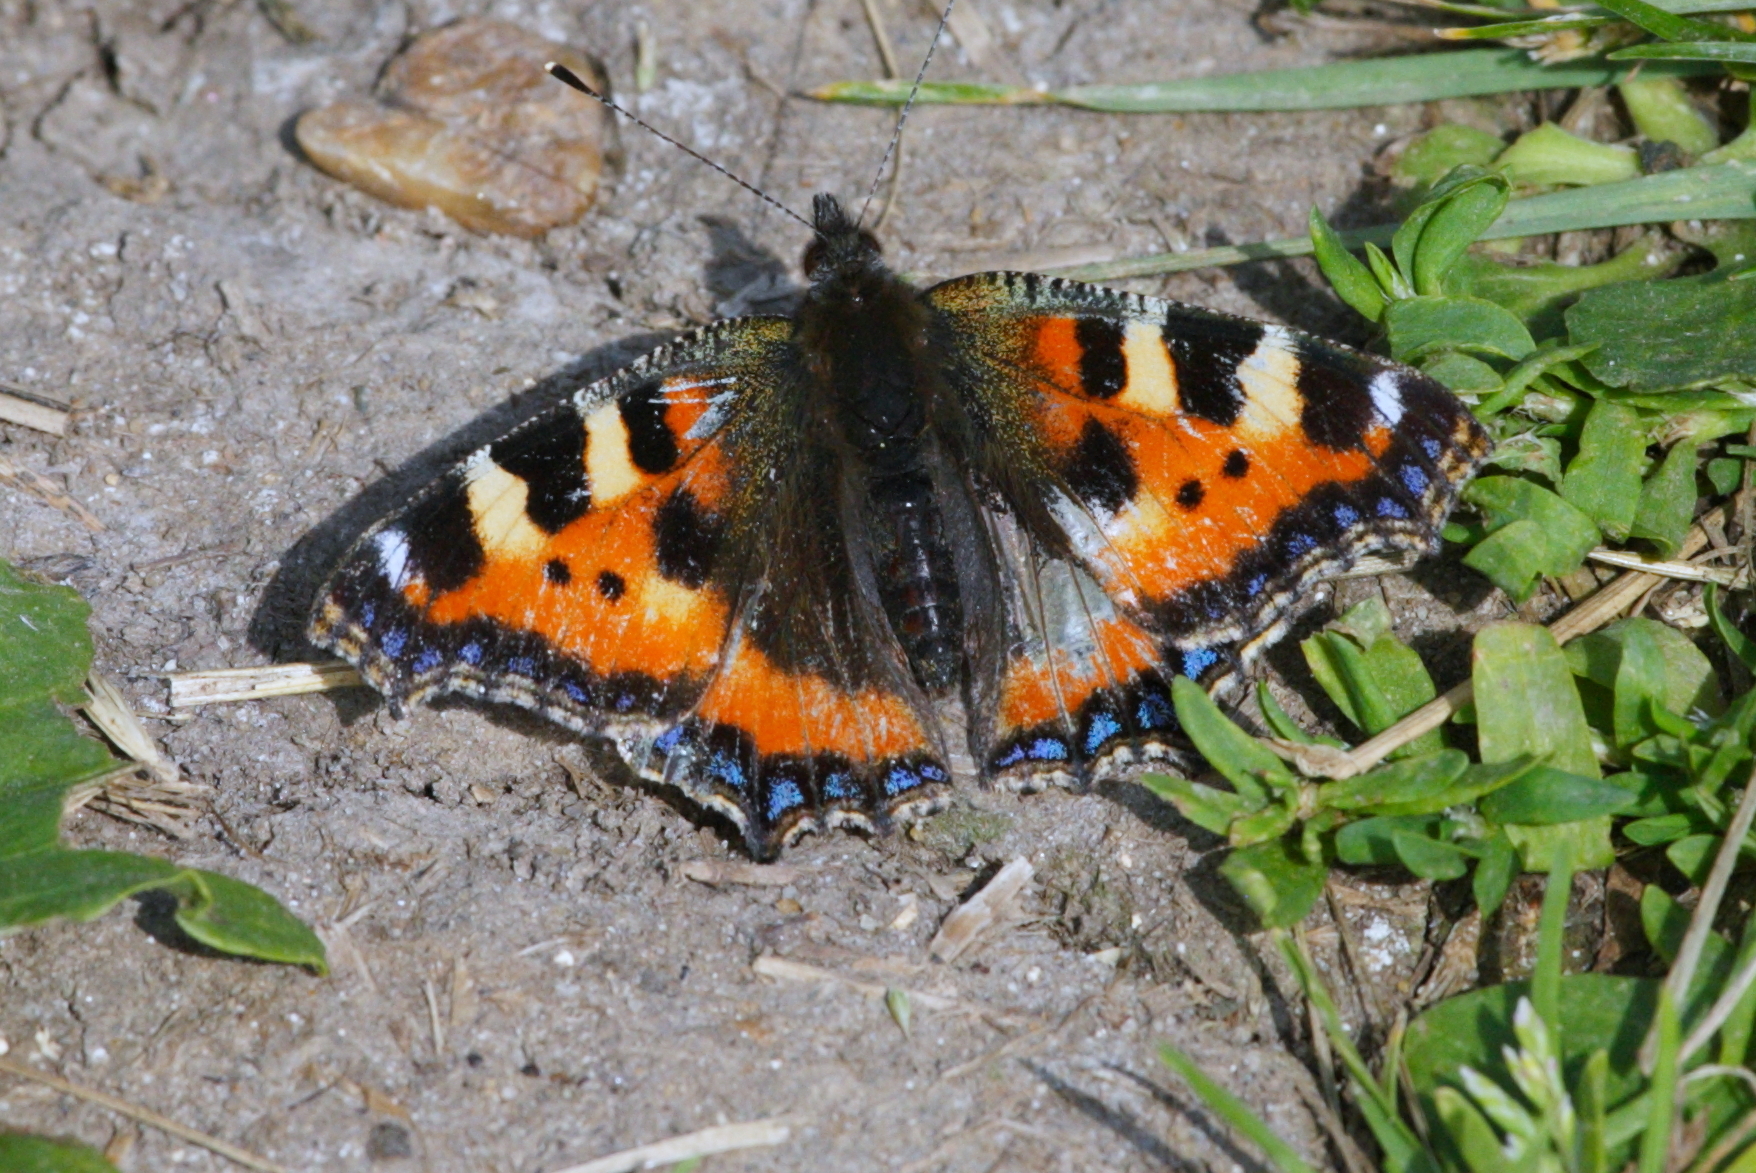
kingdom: Animalia
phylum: Arthropoda
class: Insecta
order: Lepidoptera
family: Nymphalidae
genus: Aglais
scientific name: Aglais urticae
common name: Small tortoiseshell
